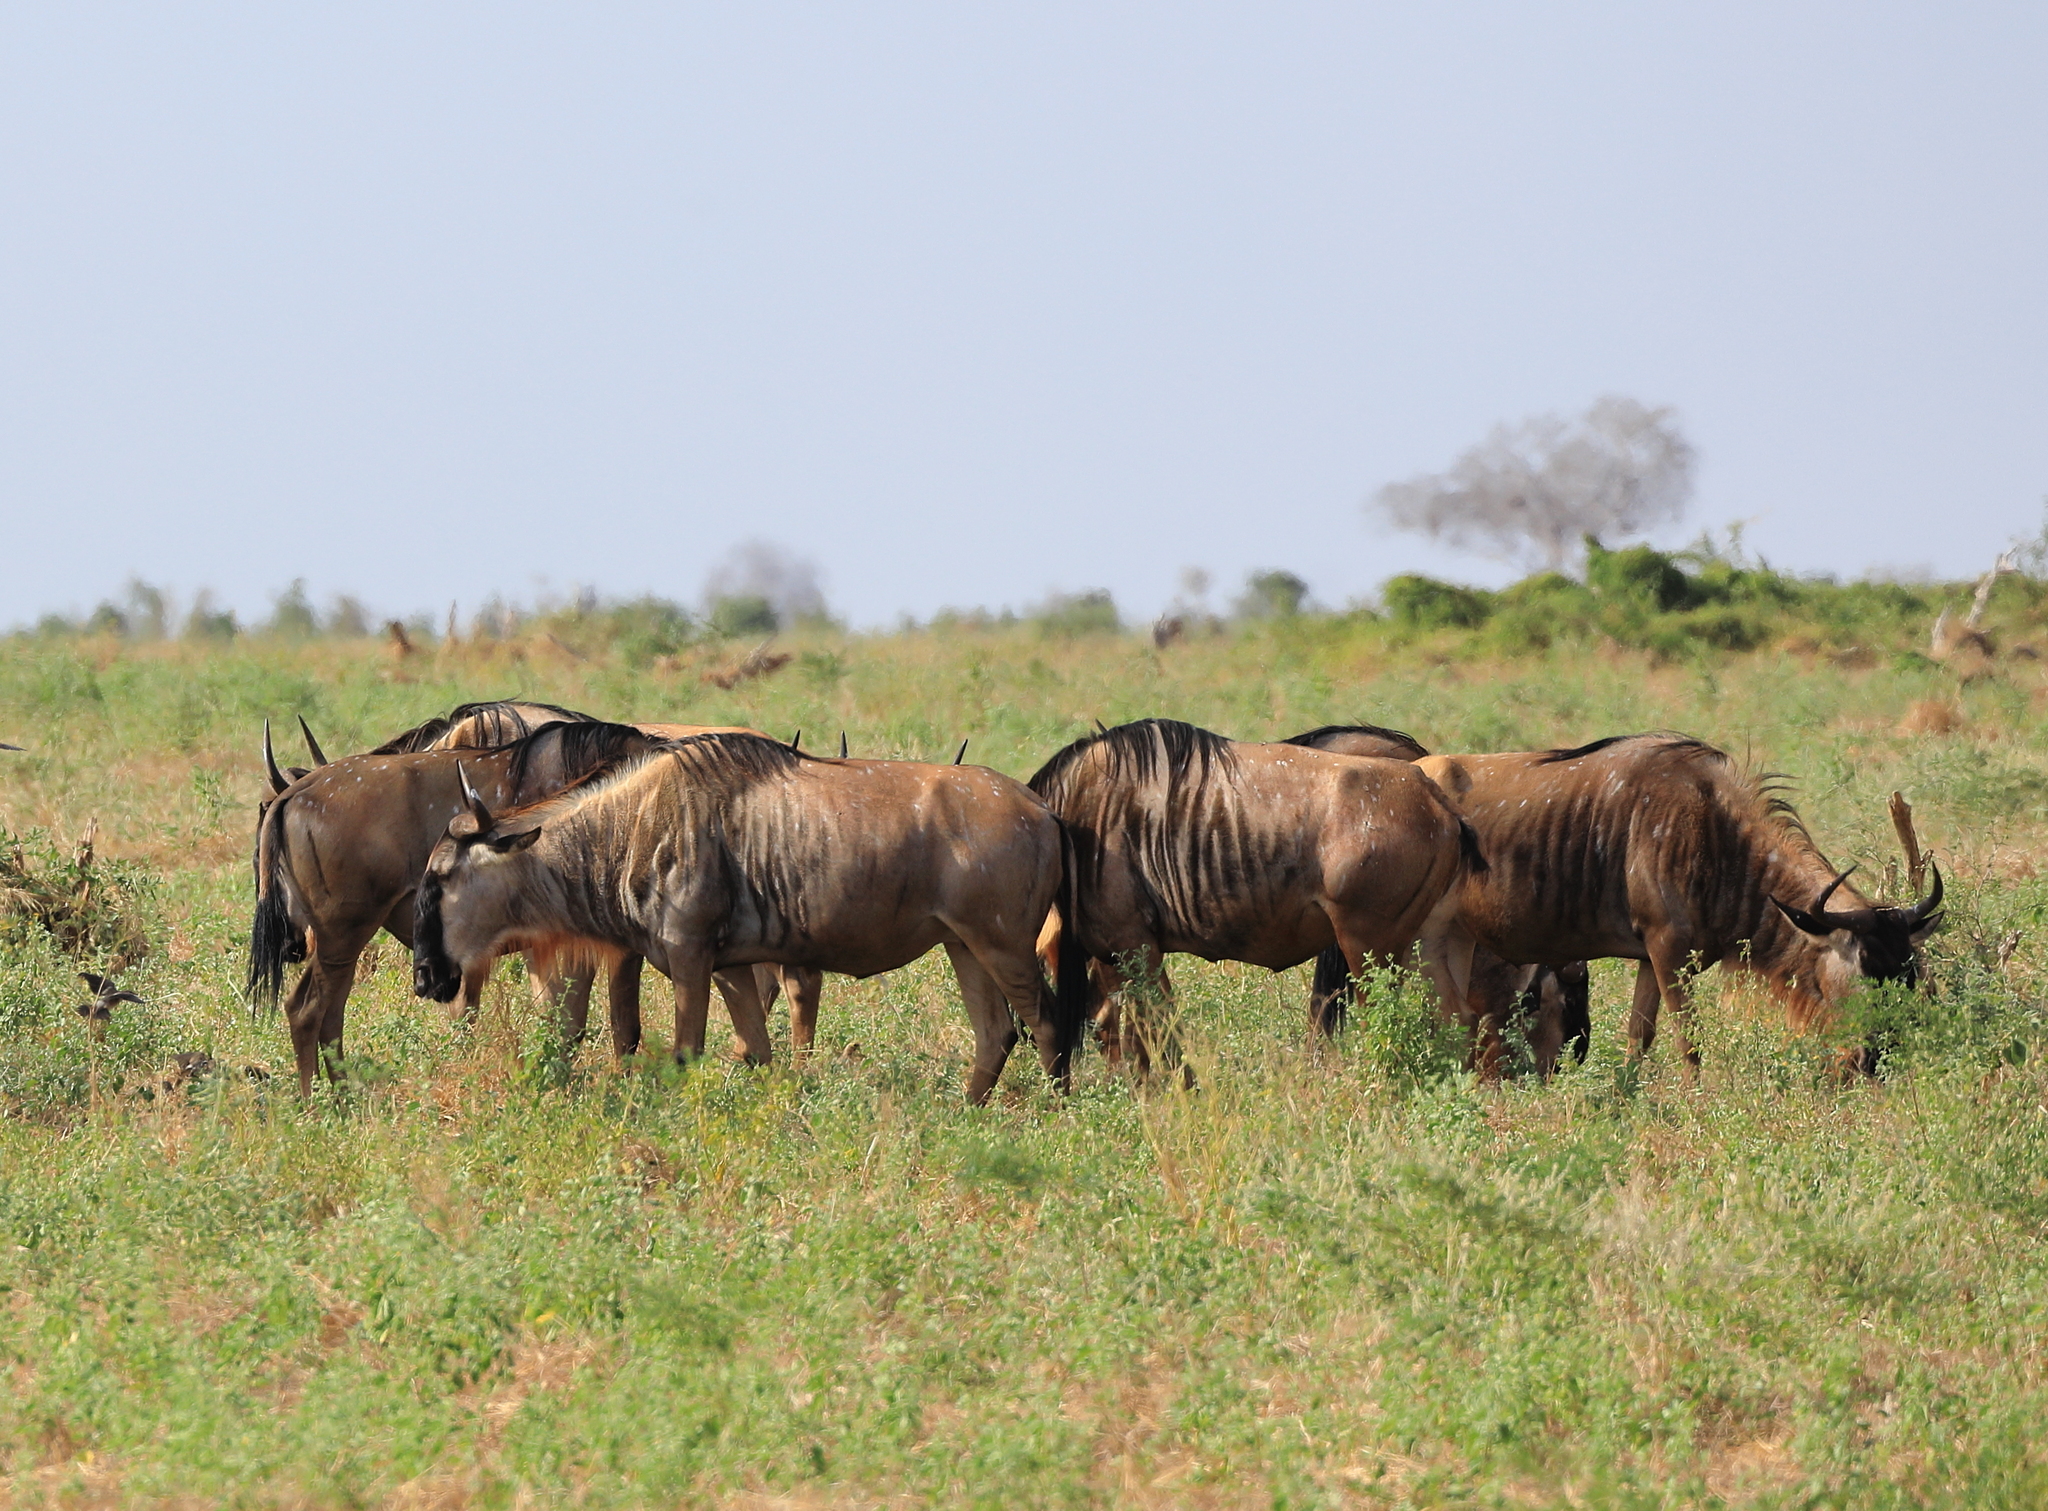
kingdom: Animalia
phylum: Chordata
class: Mammalia
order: Artiodactyla
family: Bovidae
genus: Connochaetes
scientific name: Connochaetes taurinus
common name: Blue wildebeest
